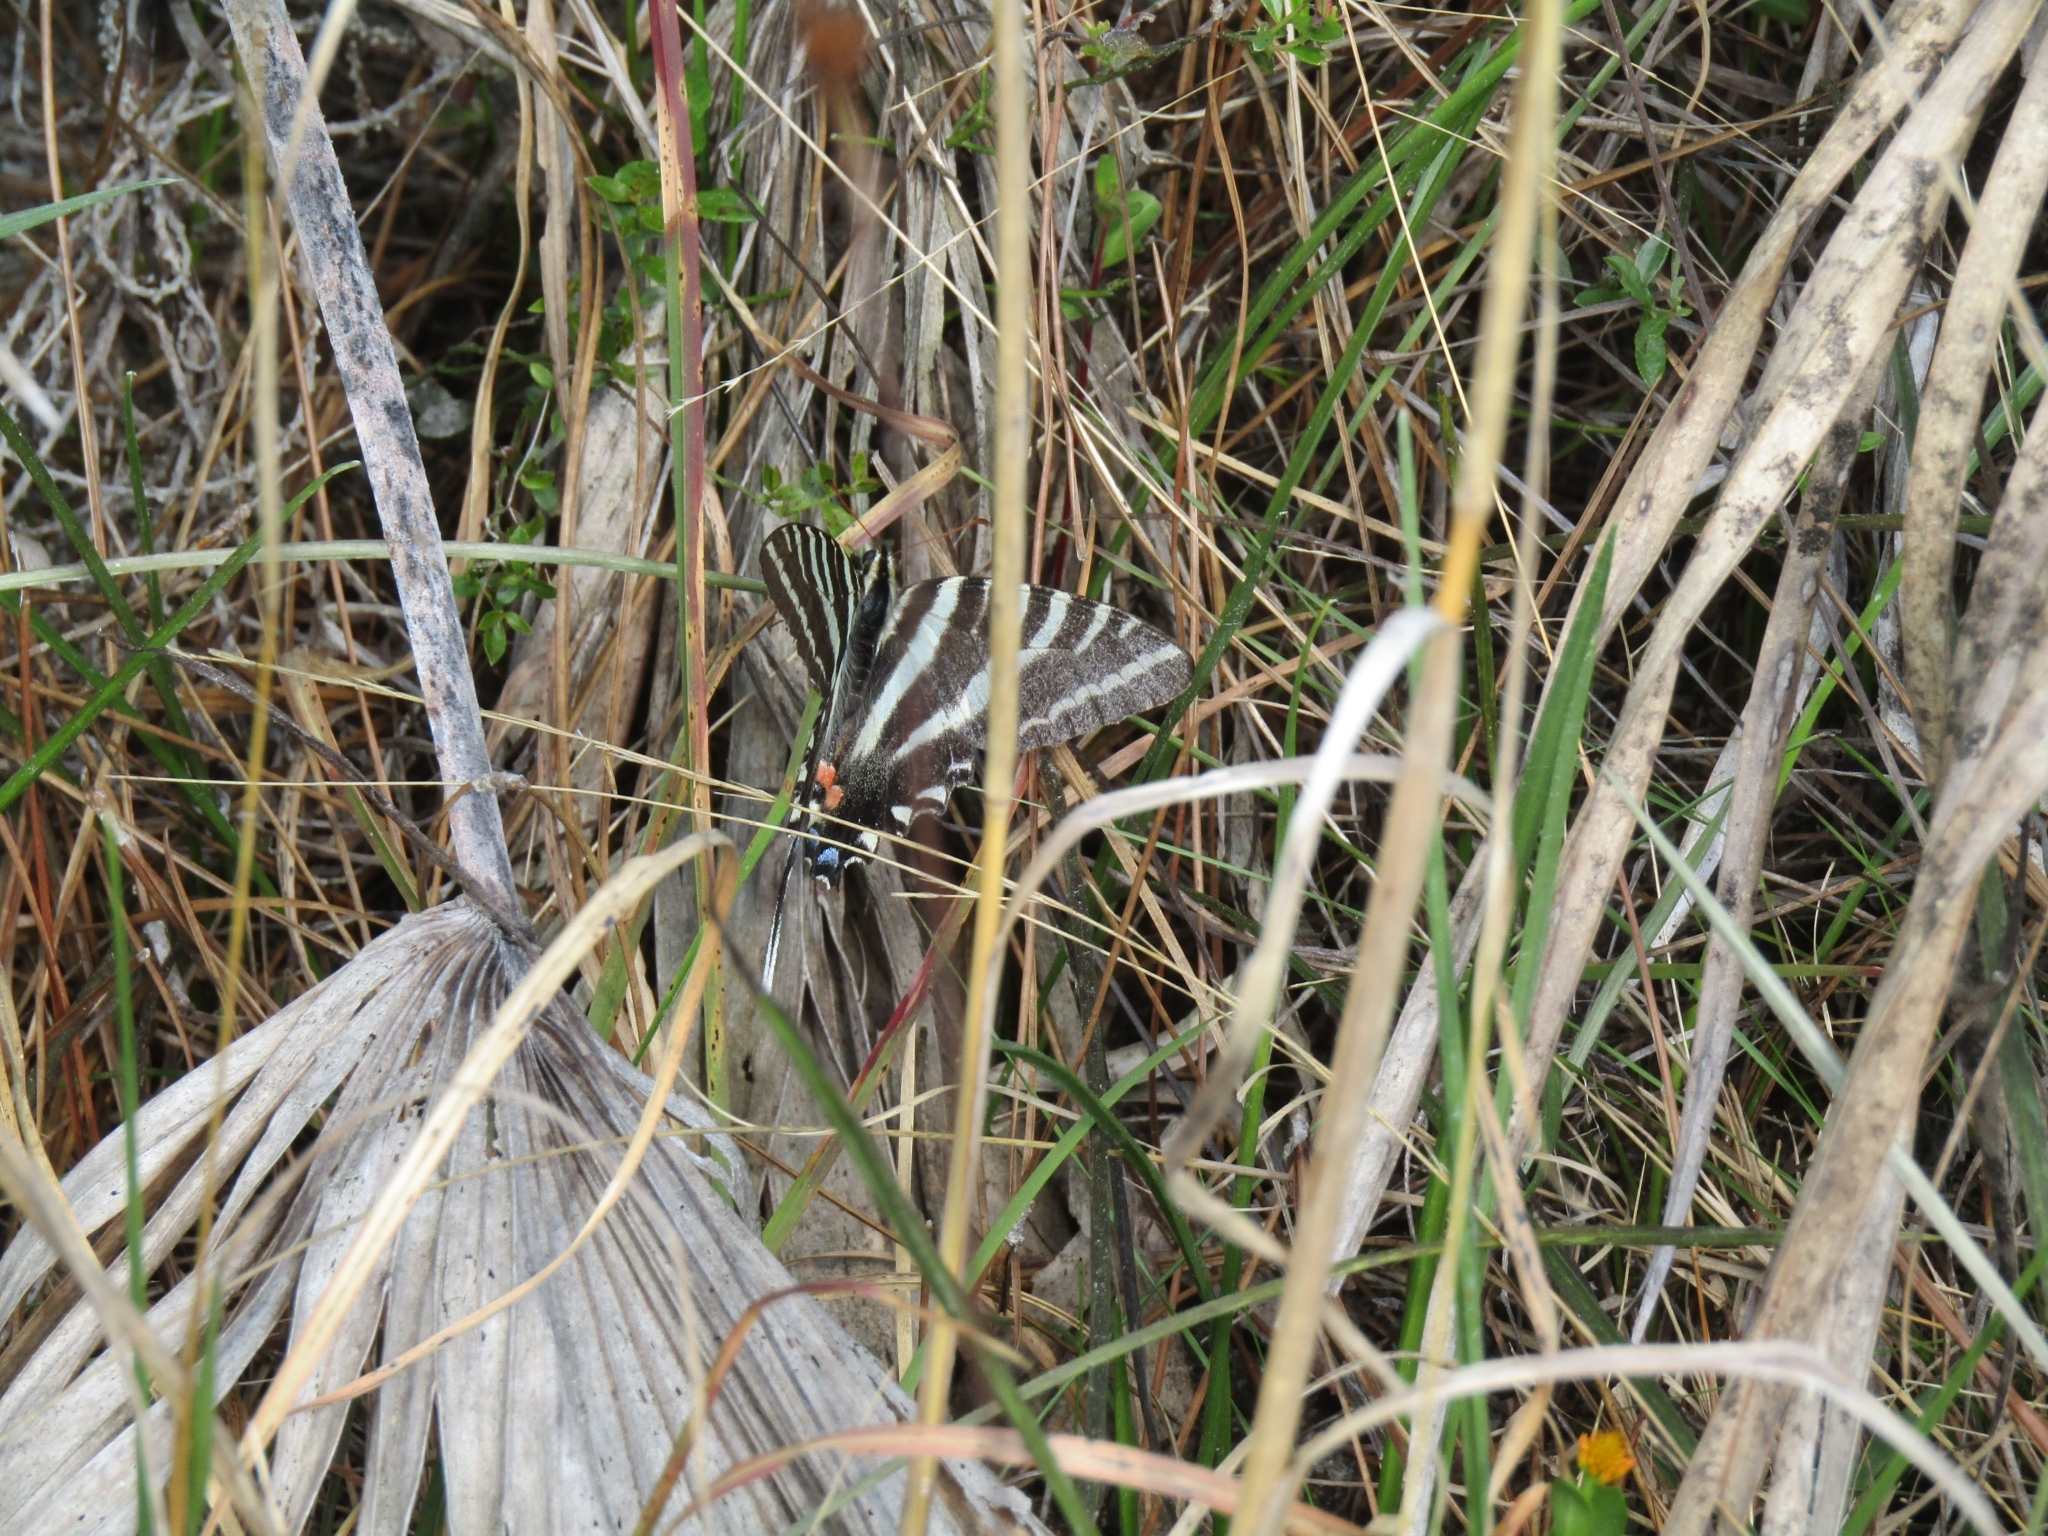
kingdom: Animalia
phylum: Arthropoda
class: Insecta
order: Lepidoptera
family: Papilionidae
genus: Protographium
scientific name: Protographium marcellus
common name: Zebra swallowtail
